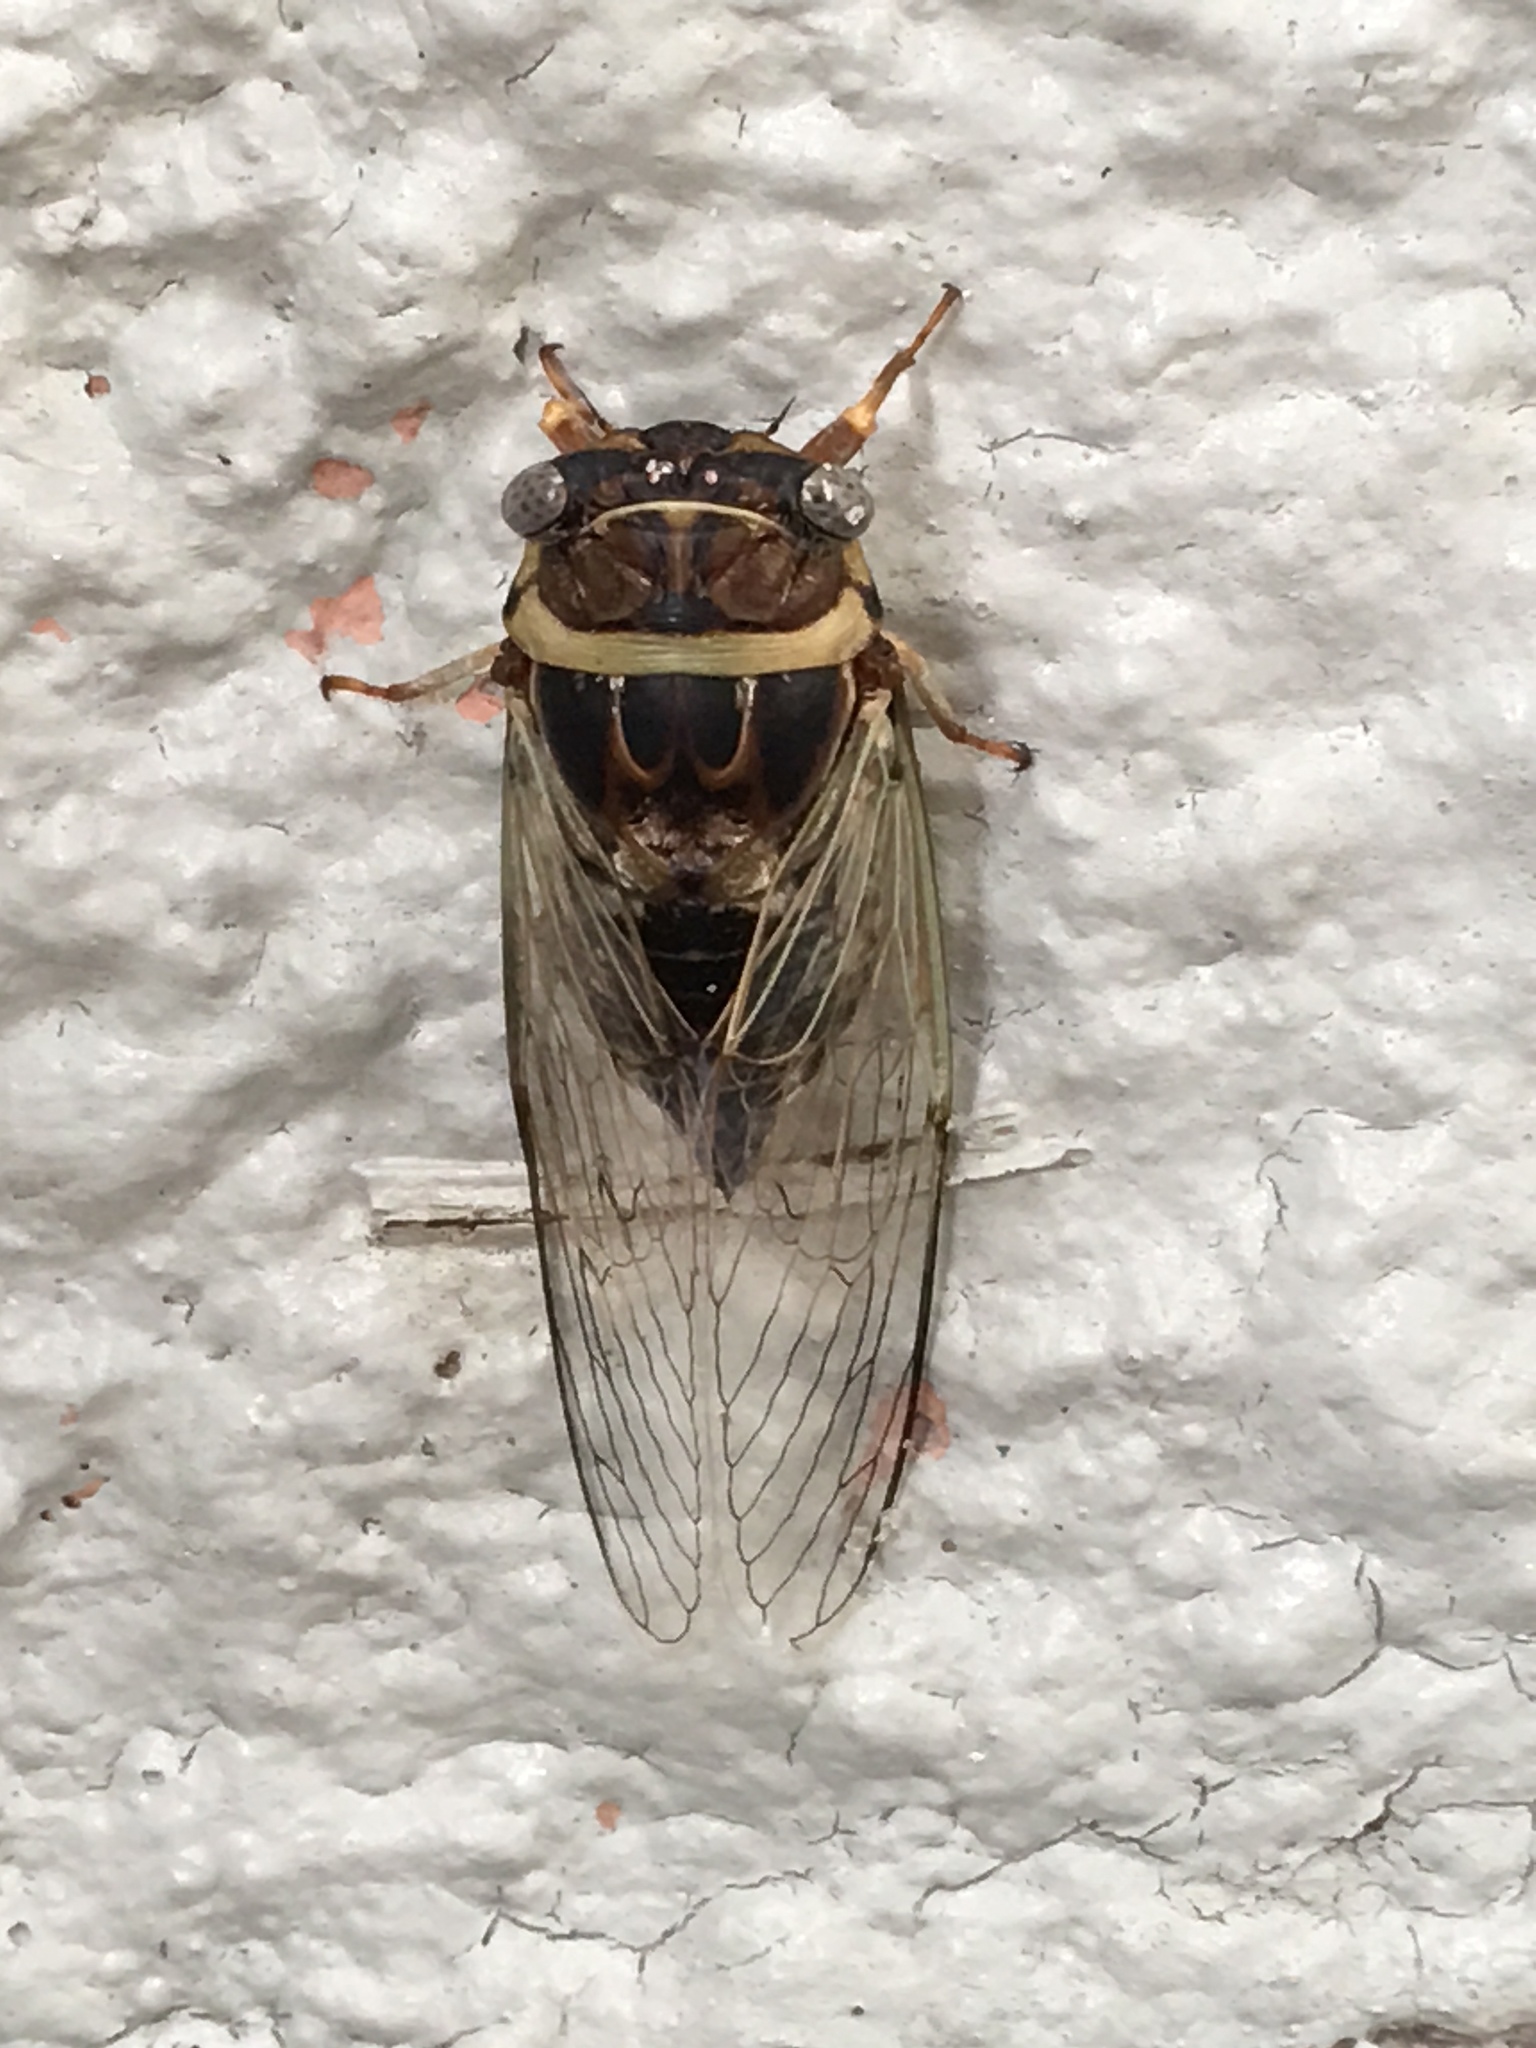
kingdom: Animalia
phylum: Arthropoda
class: Insecta
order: Hemiptera
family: Cicadidae
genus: Diceroprocta
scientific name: Diceroprocta viridifascia
